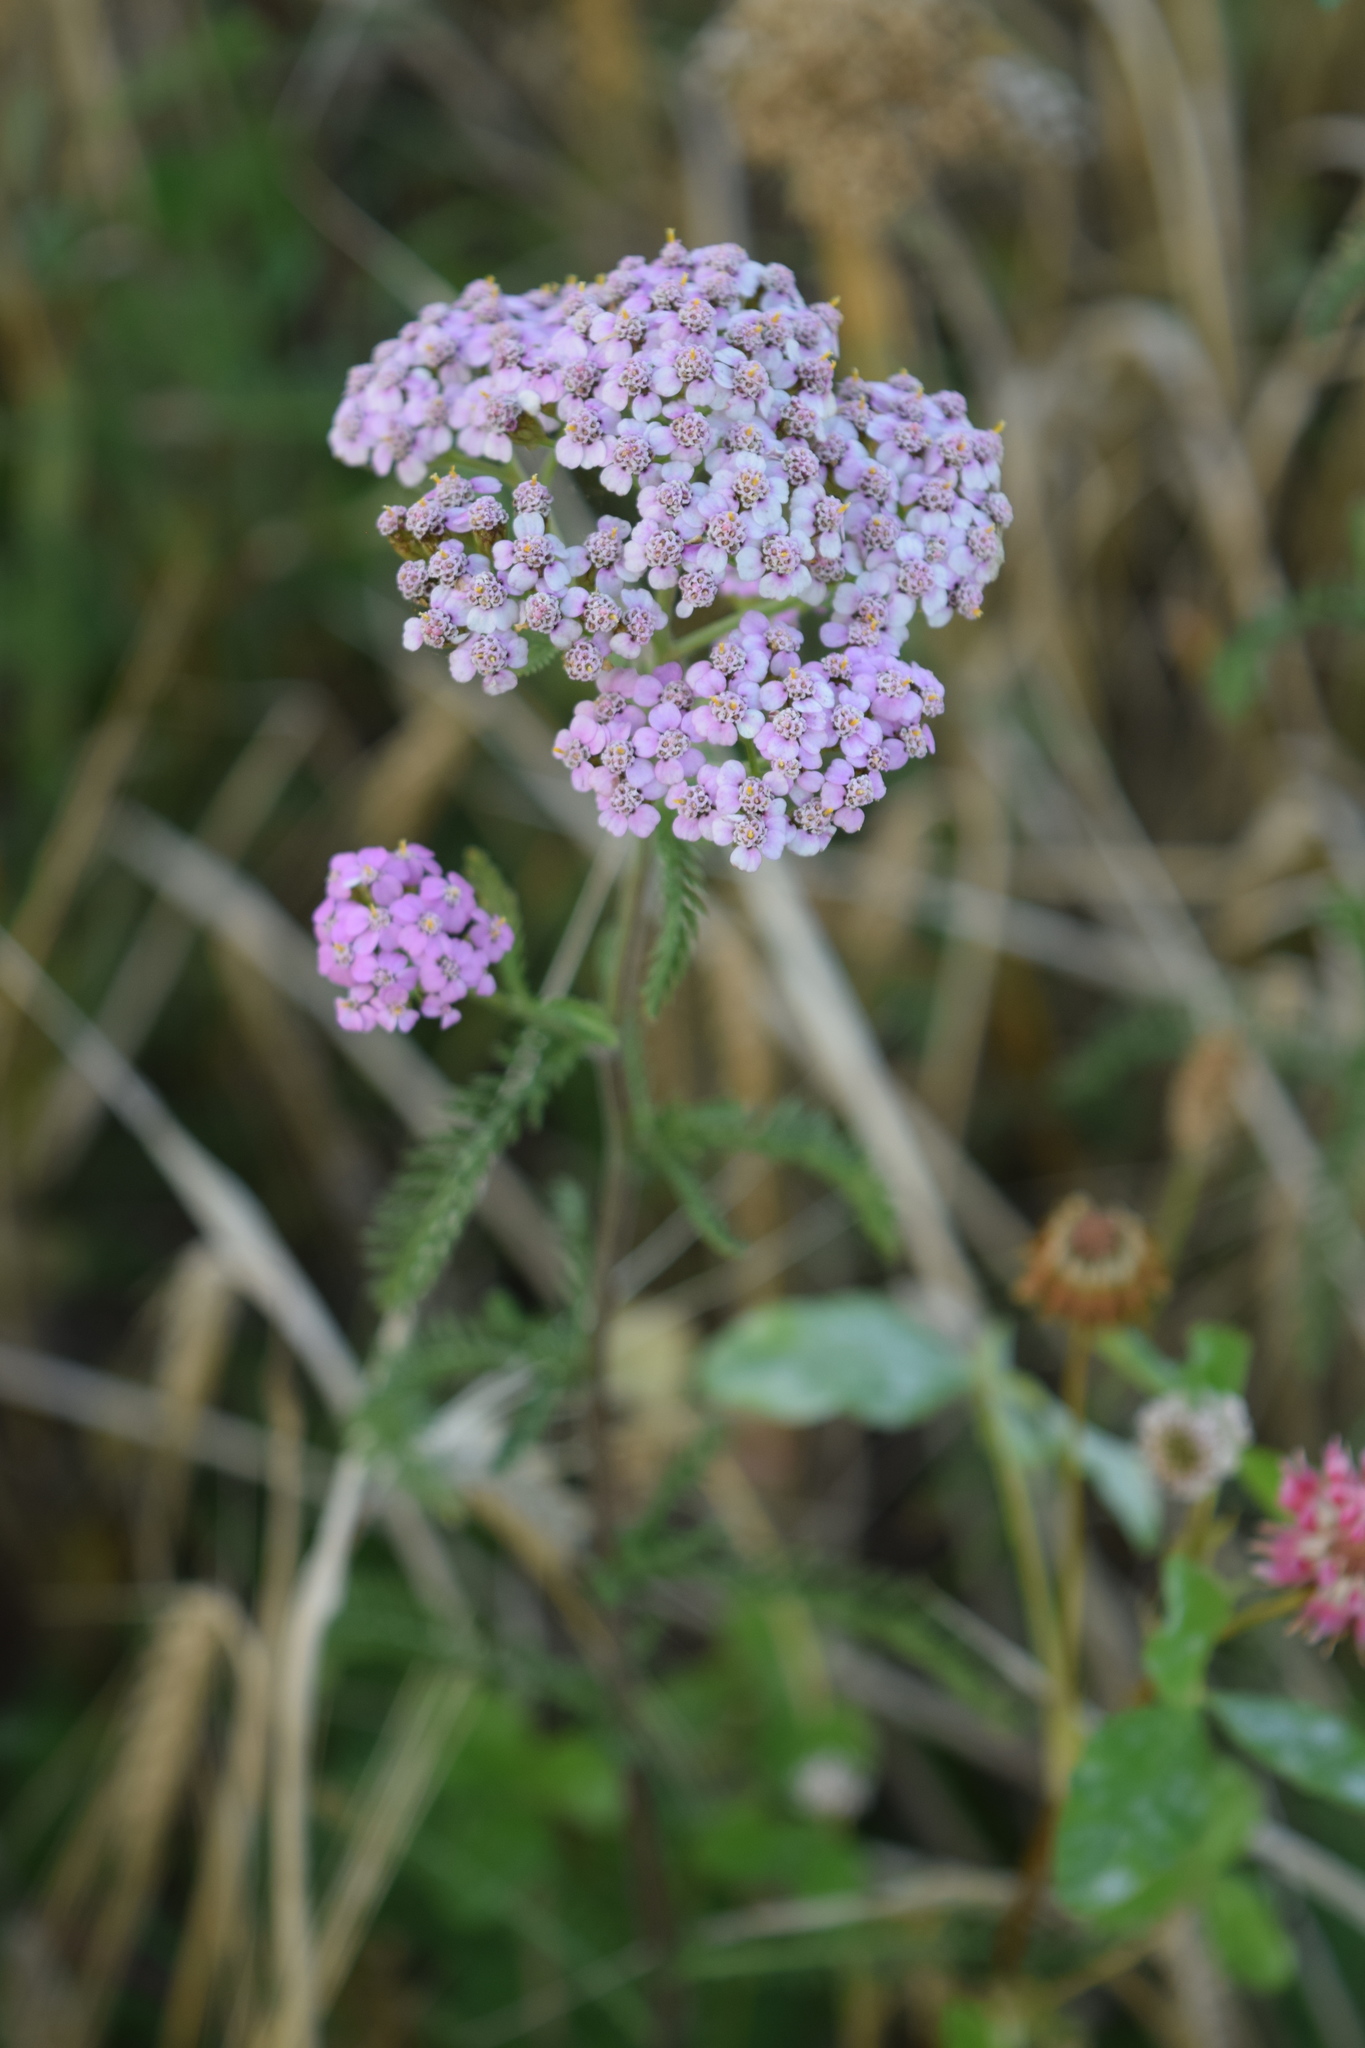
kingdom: Plantae
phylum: Tracheophyta
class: Magnoliopsida
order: Asterales
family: Asteraceae
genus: Achillea
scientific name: Achillea millefolium
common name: Yarrow
